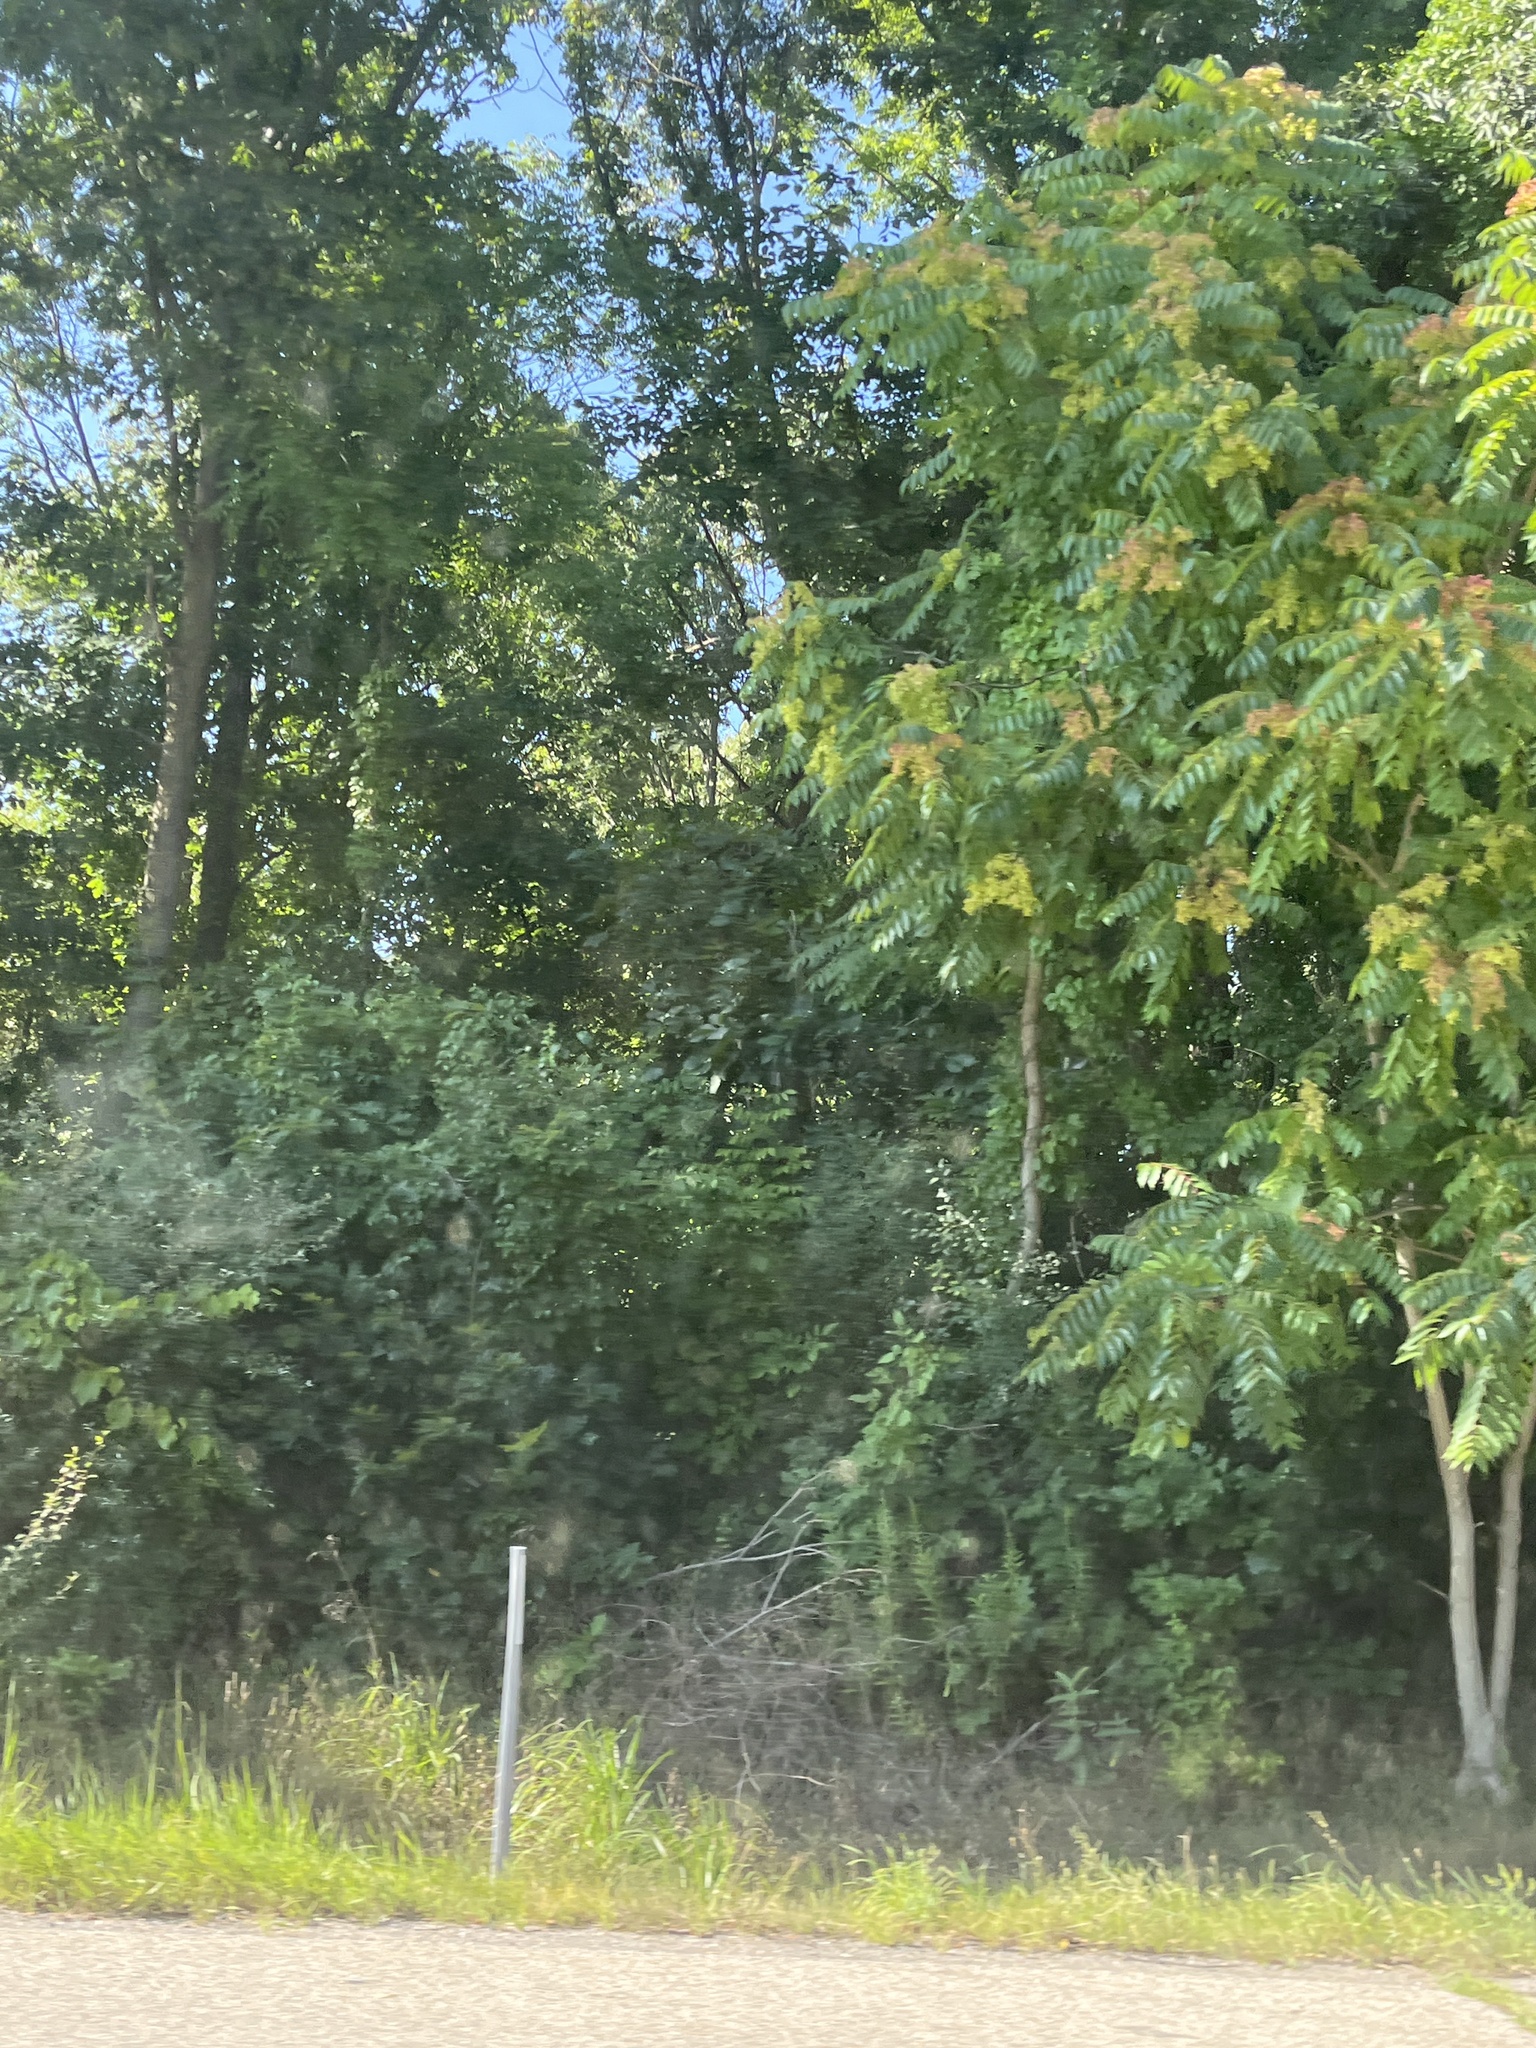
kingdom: Plantae
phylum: Tracheophyta
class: Magnoliopsida
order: Sapindales
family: Simaroubaceae
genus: Ailanthus
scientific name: Ailanthus altissima
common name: Tree-of-heaven
